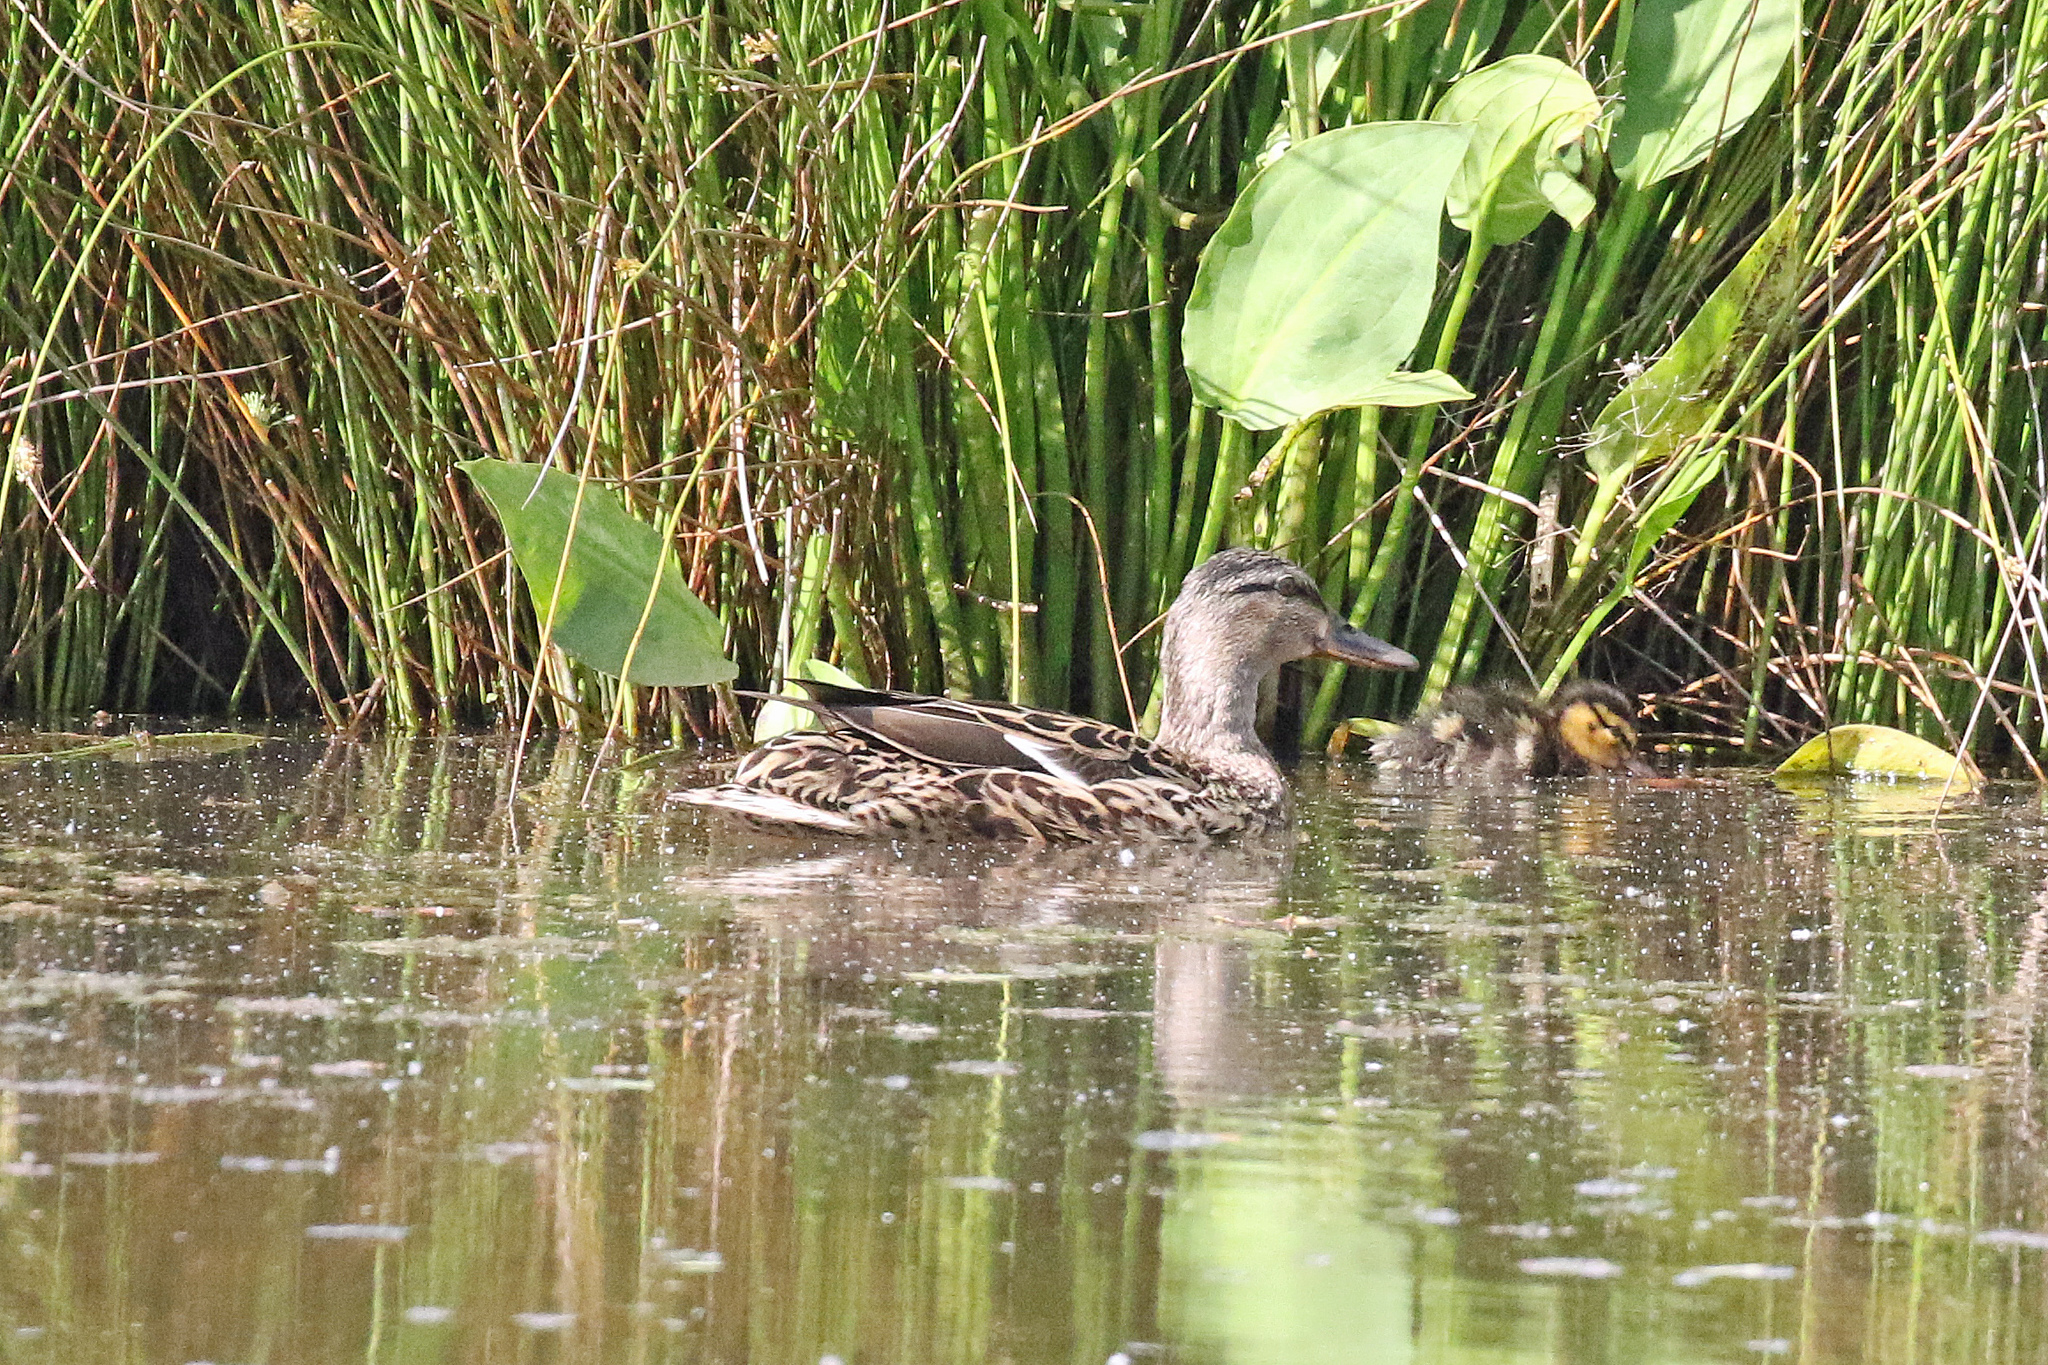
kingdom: Animalia
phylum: Chordata
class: Aves
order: Anseriformes
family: Anatidae
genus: Anas
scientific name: Anas platyrhynchos
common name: Mallard
